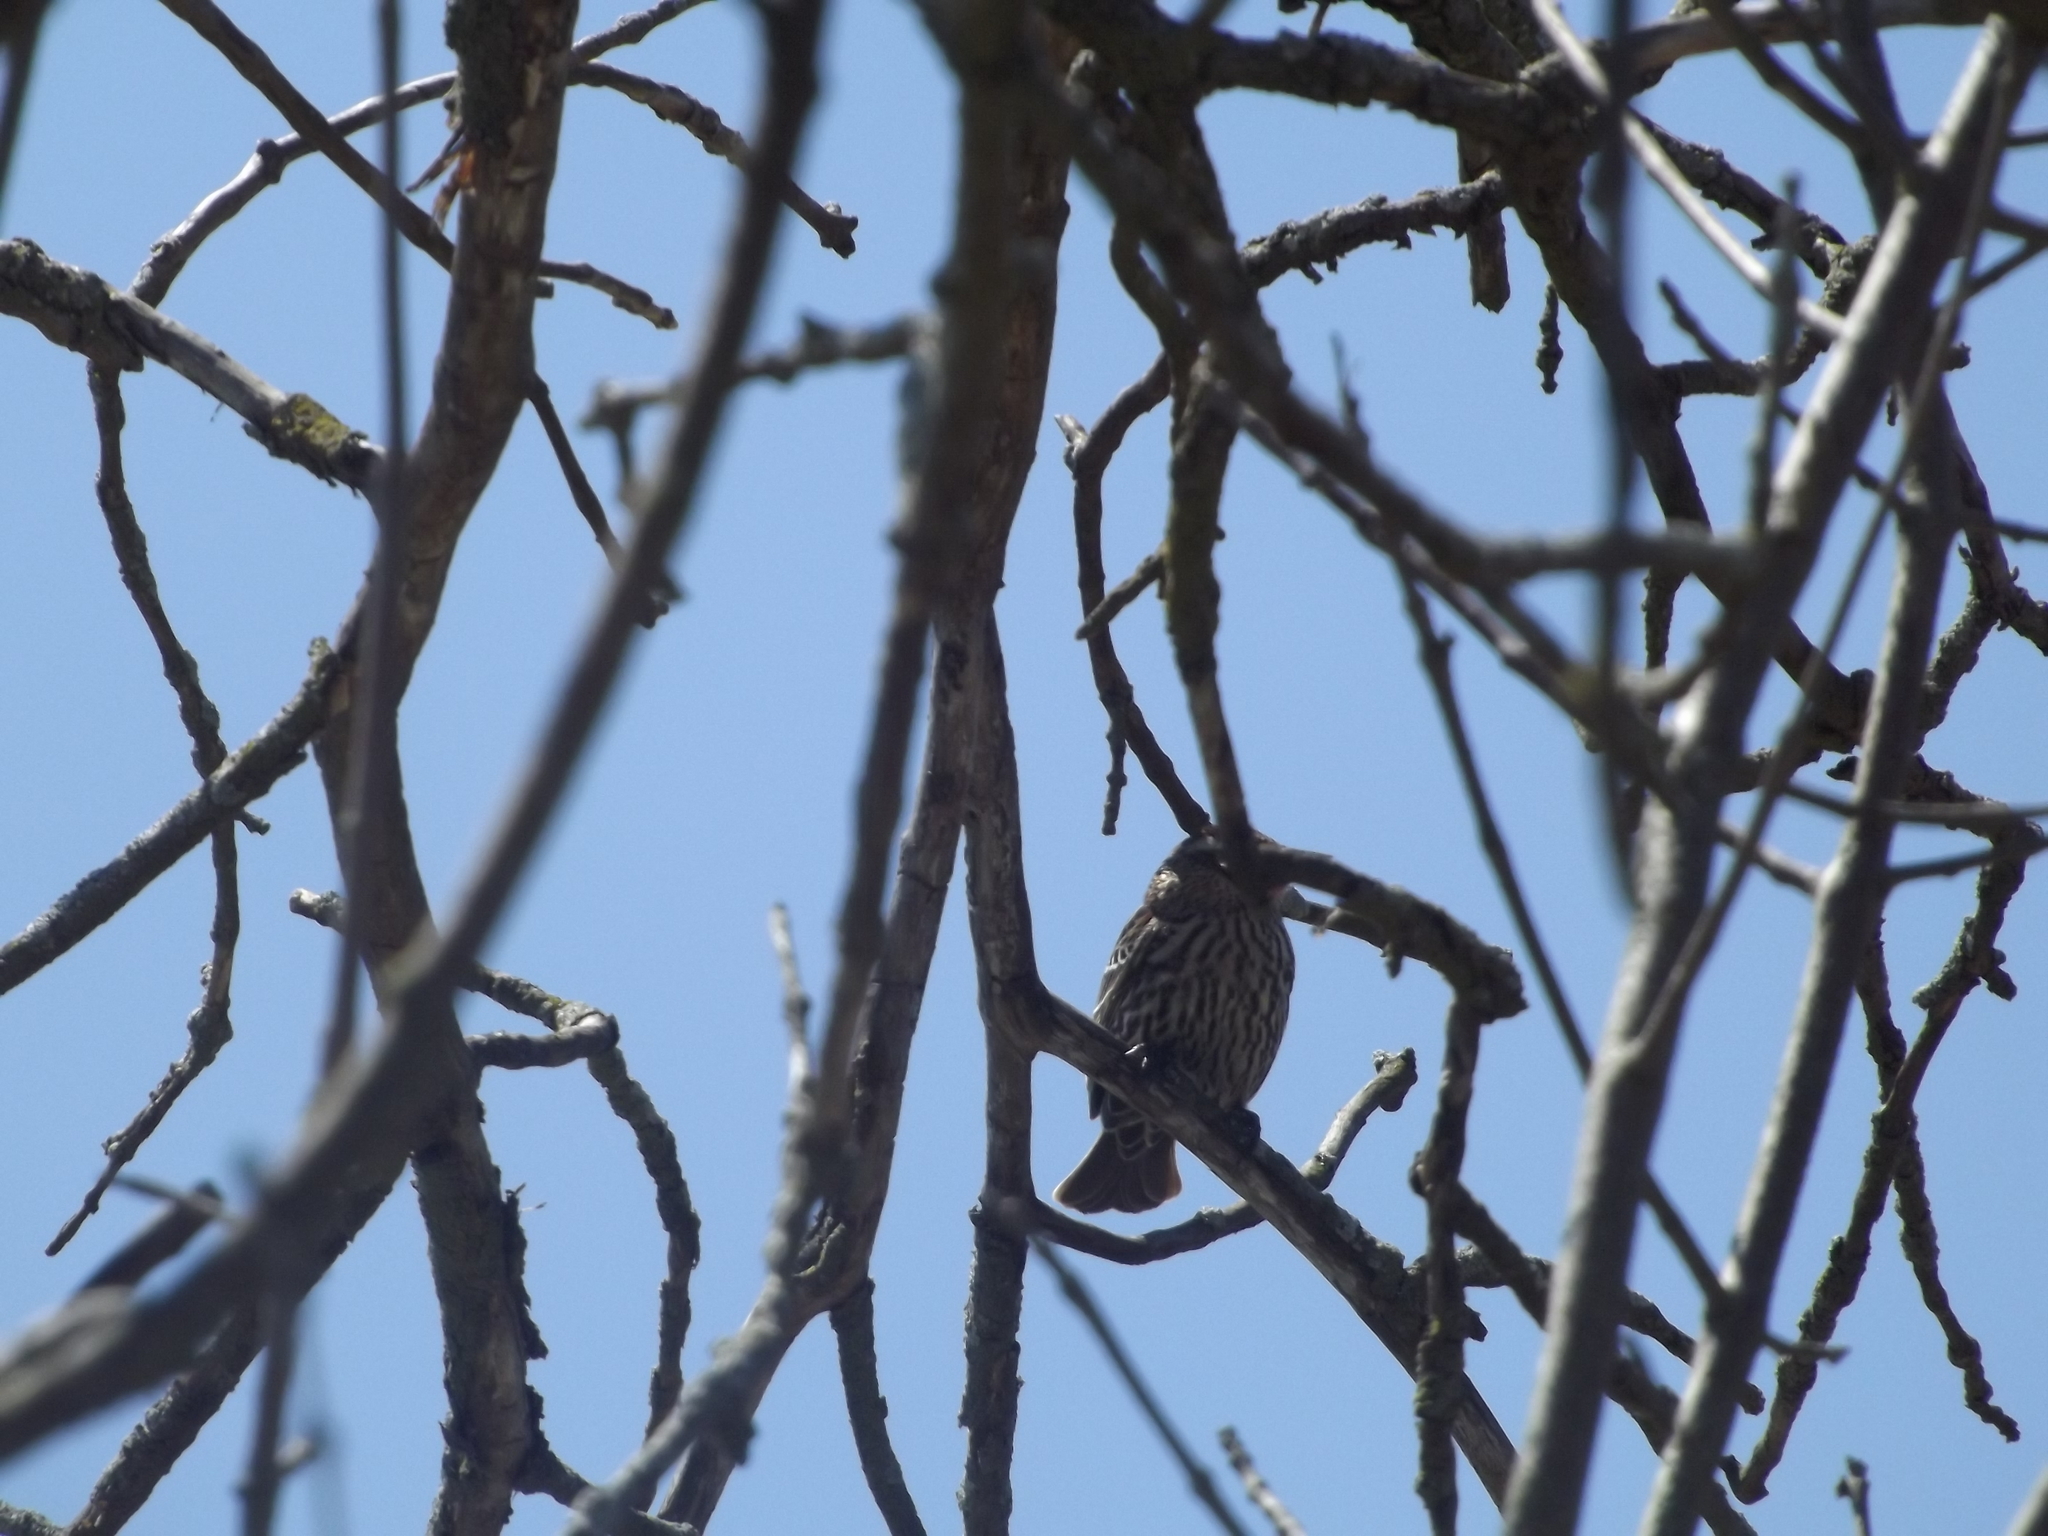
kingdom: Animalia
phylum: Chordata
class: Aves
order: Passeriformes
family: Icteridae
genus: Agelaius
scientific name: Agelaius phoeniceus
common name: Red-winged blackbird
